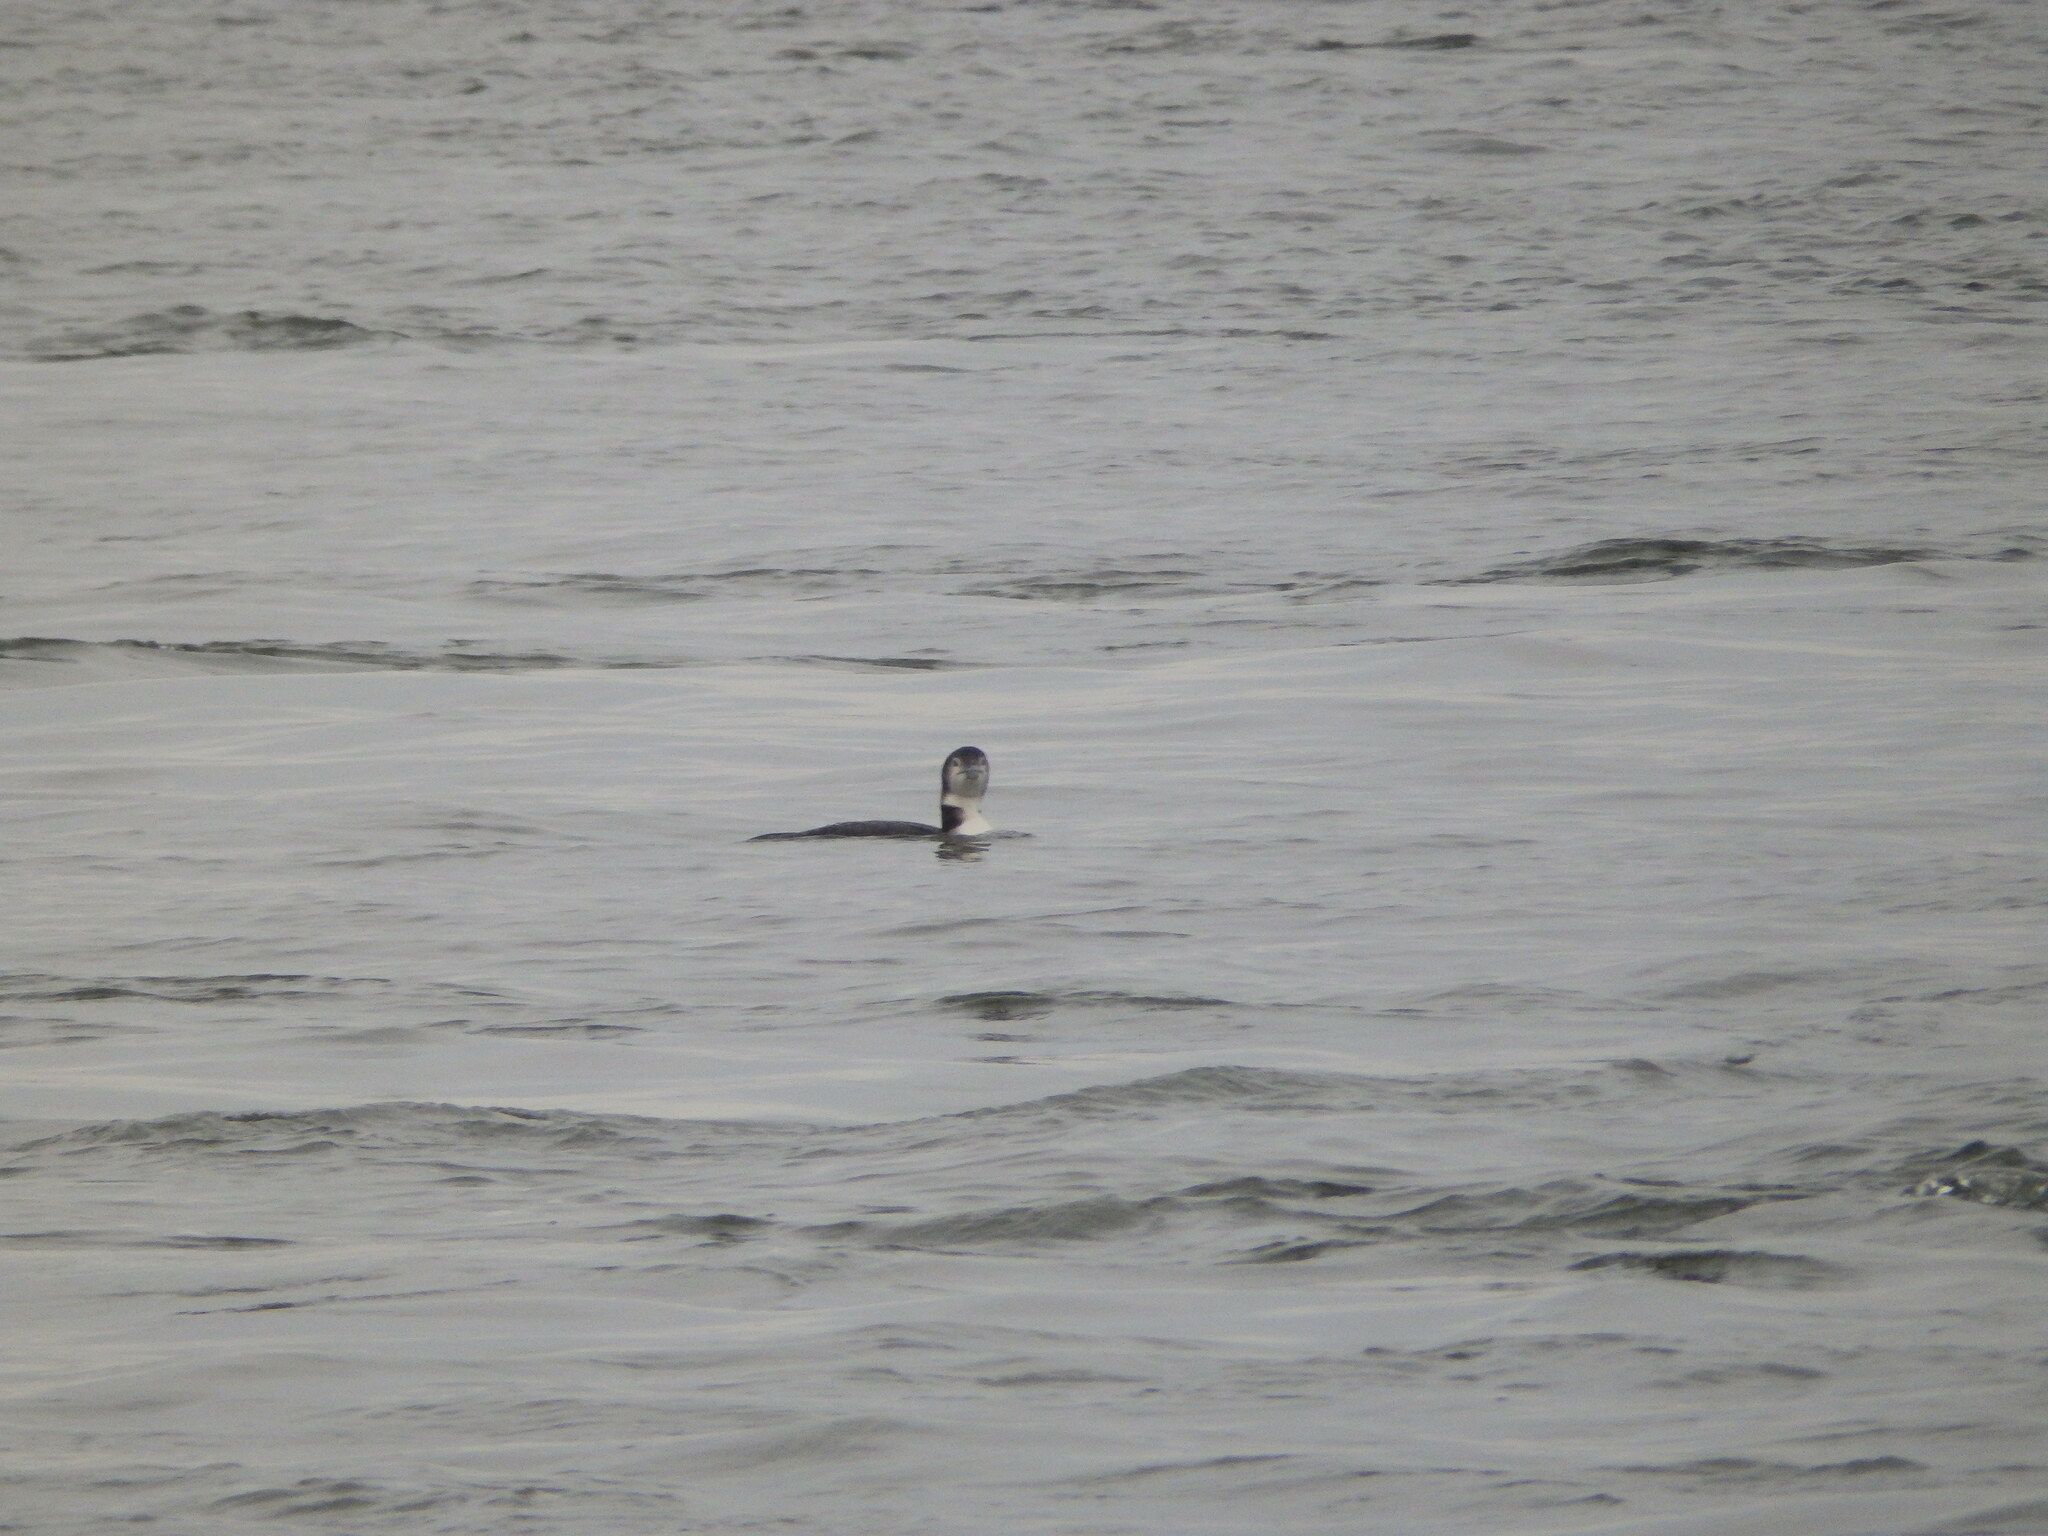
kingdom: Animalia
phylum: Chordata
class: Aves
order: Gaviiformes
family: Gaviidae
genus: Gavia
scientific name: Gavia immer
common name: Common loon
